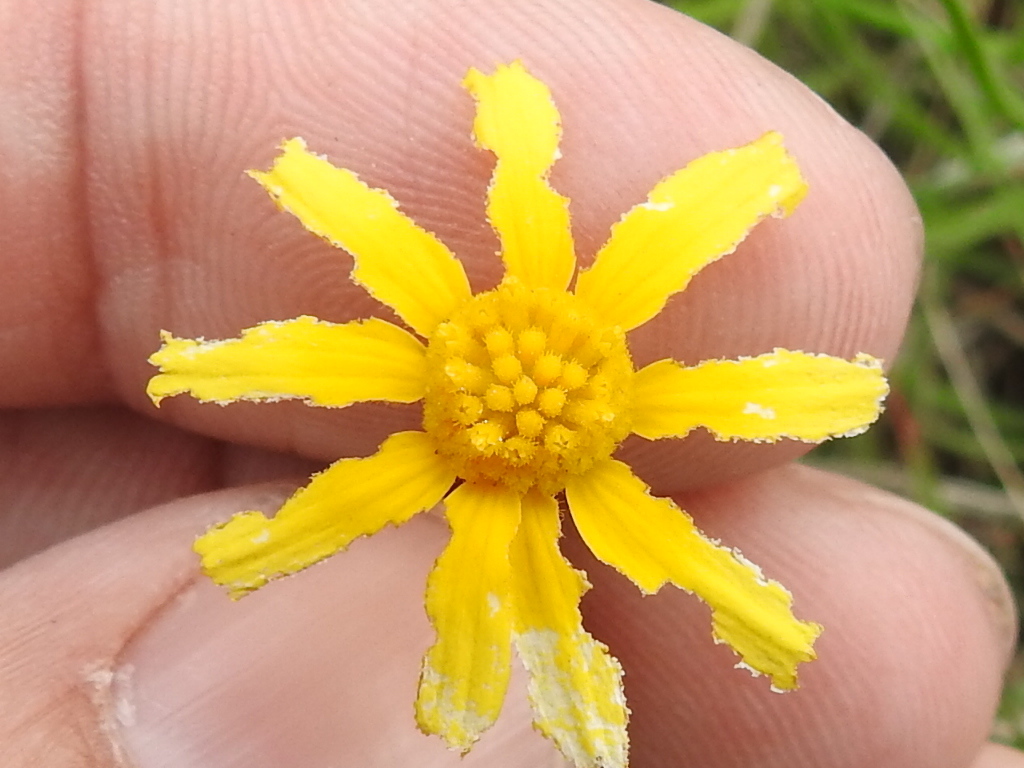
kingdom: Plantae
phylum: Tracheophyta
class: Magnoliopsida
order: Asterales
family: Asteraceae
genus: Tetraneuris
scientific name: Tetraneuris linearifolia
